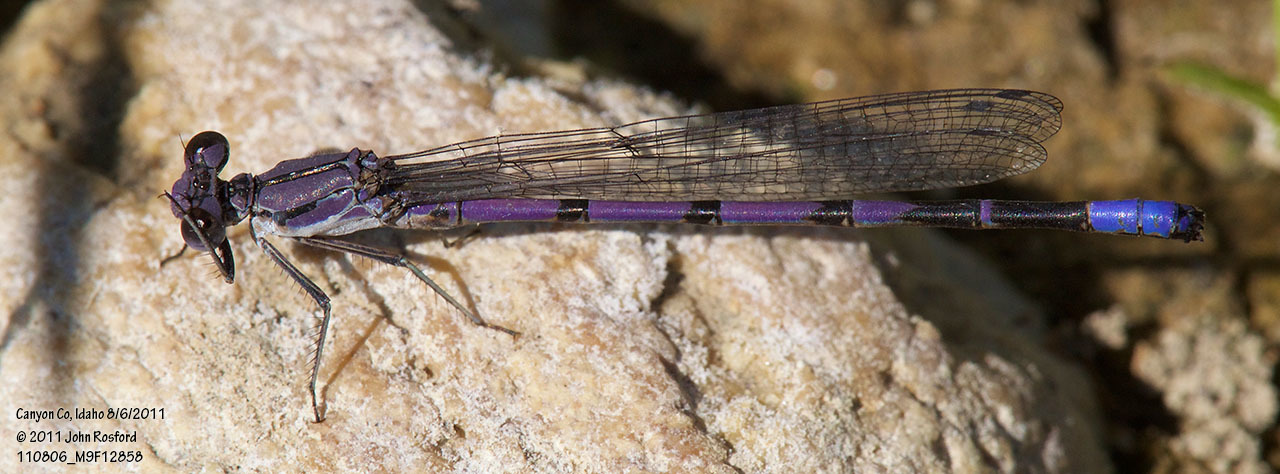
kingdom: Animalia
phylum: Arthropoda
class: Insecta
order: Odonata
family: Coenagrionidae
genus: Argia
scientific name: Argia emma
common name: Emma's dancer
